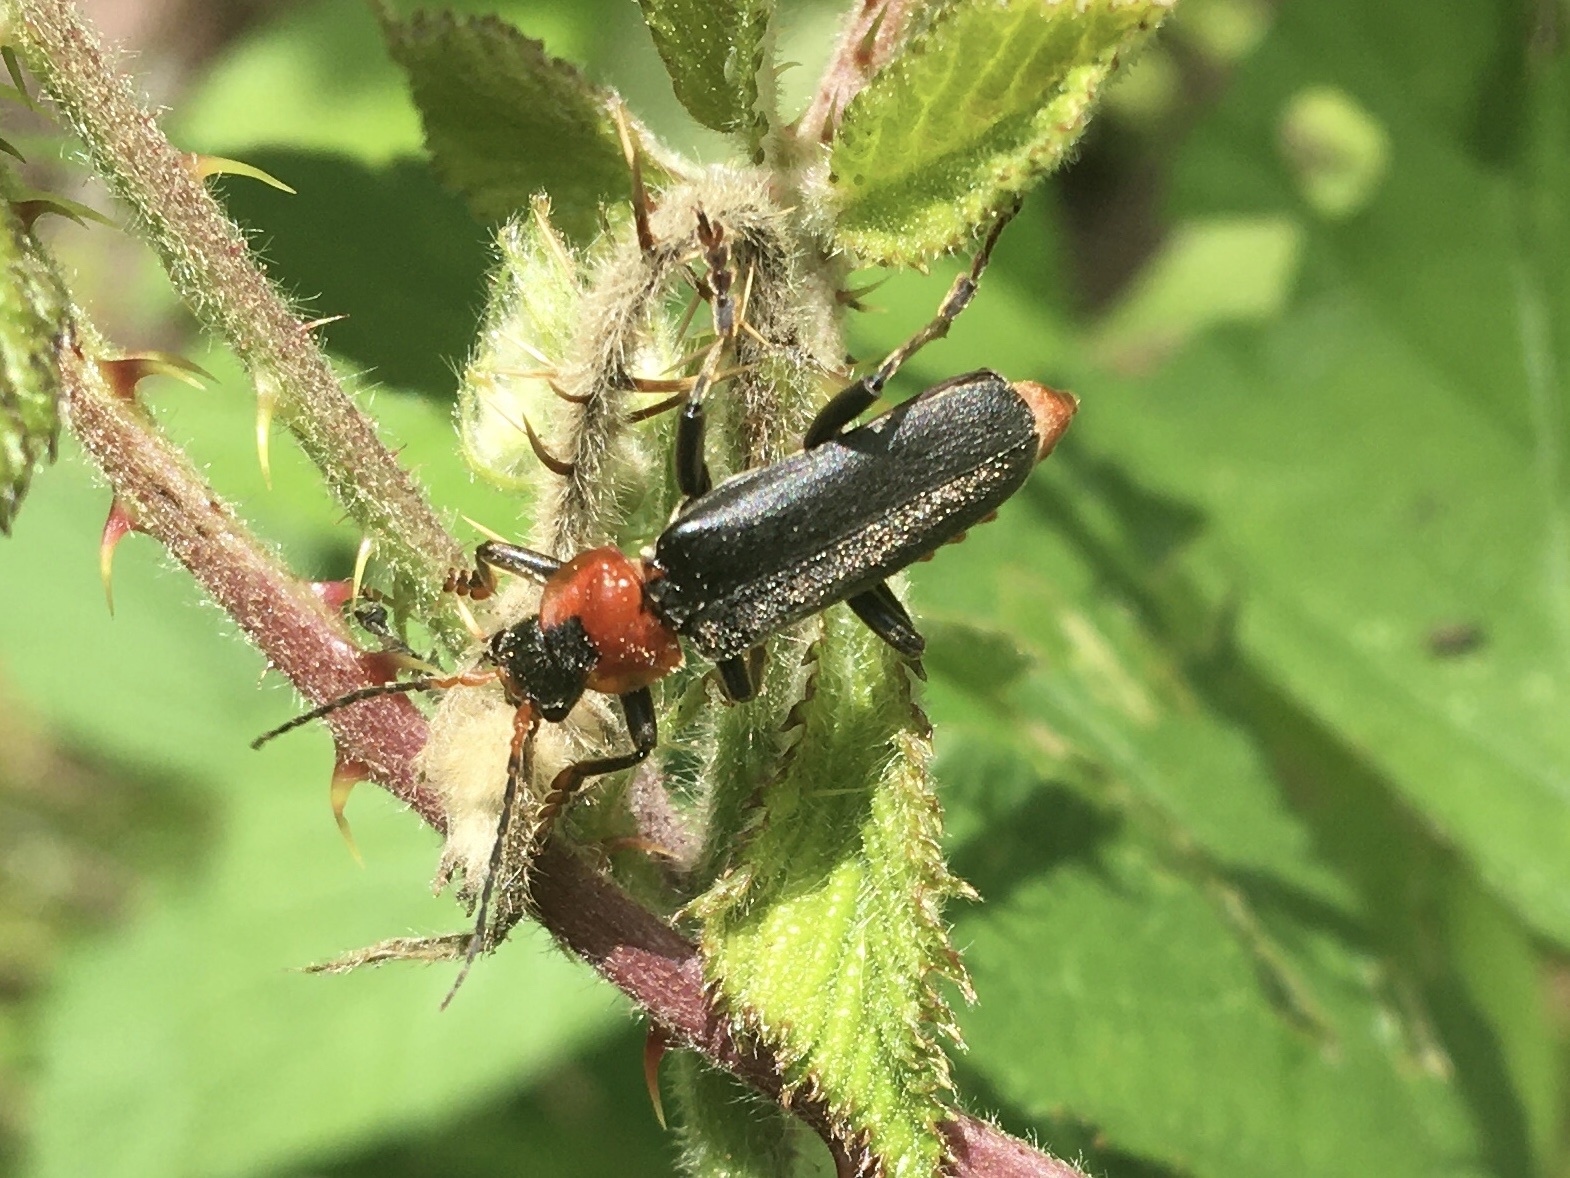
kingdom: Animalia
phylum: Arthropoda
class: Insecta
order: Coleoptera
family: Cantharidae
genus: Cantharis
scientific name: Cantharis fusca
